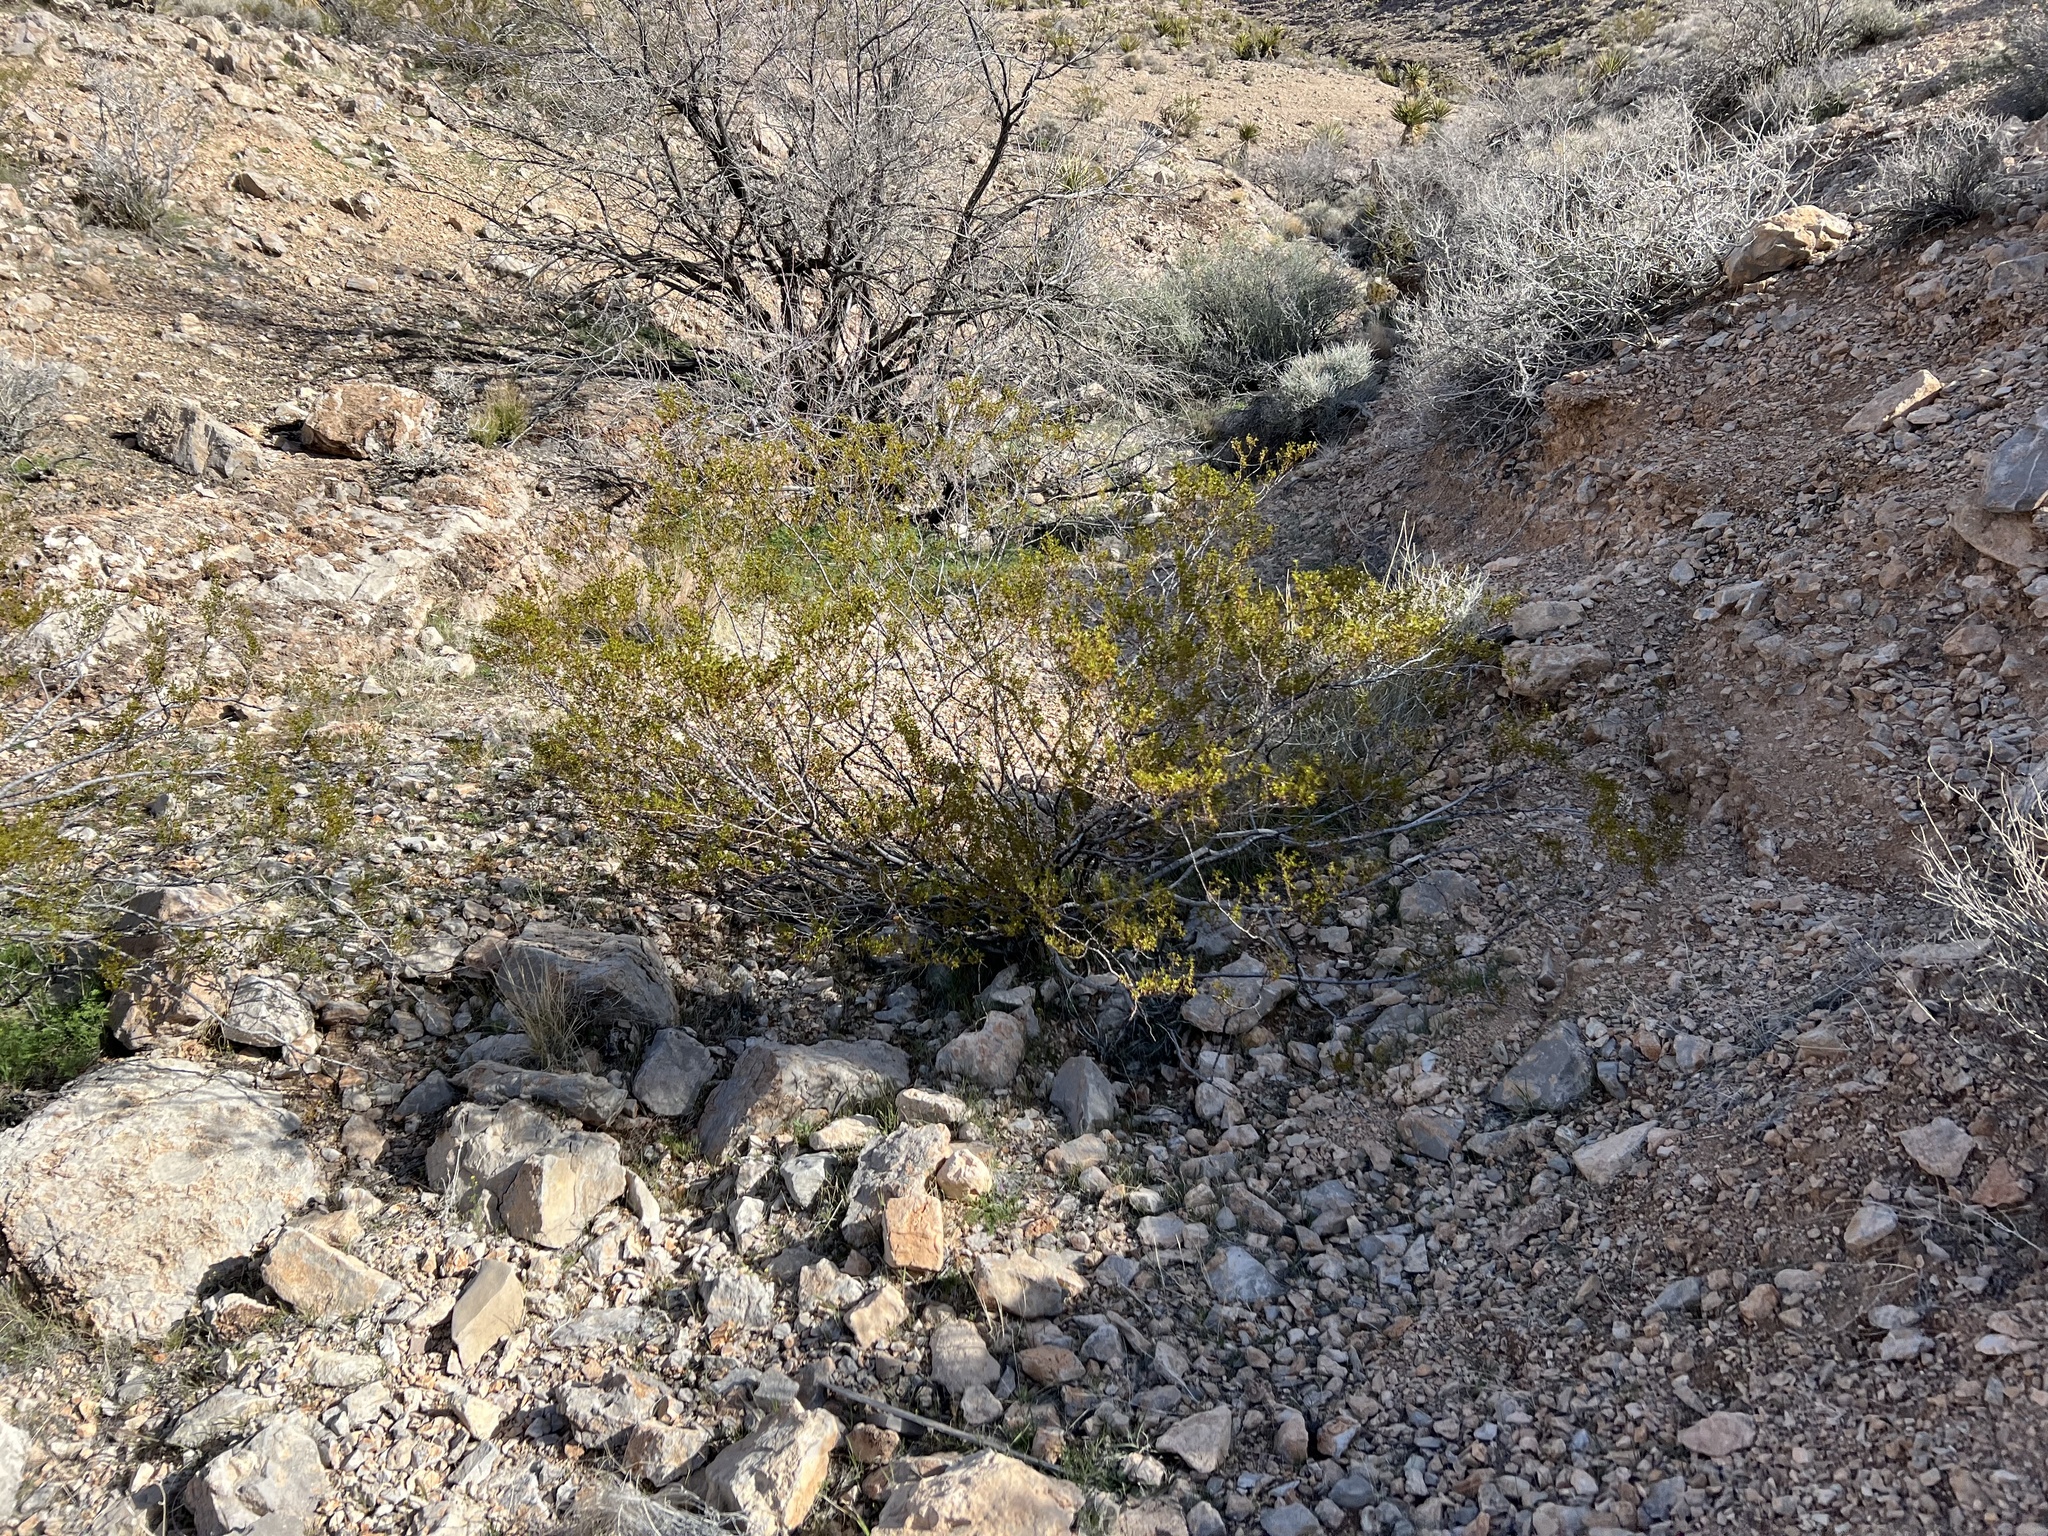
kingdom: Plantae
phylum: Tracheophyta
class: Magnoliopsida
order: Zygophyllales
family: Zygophyllaceae
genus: Larrea
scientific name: Larrea tridentata
